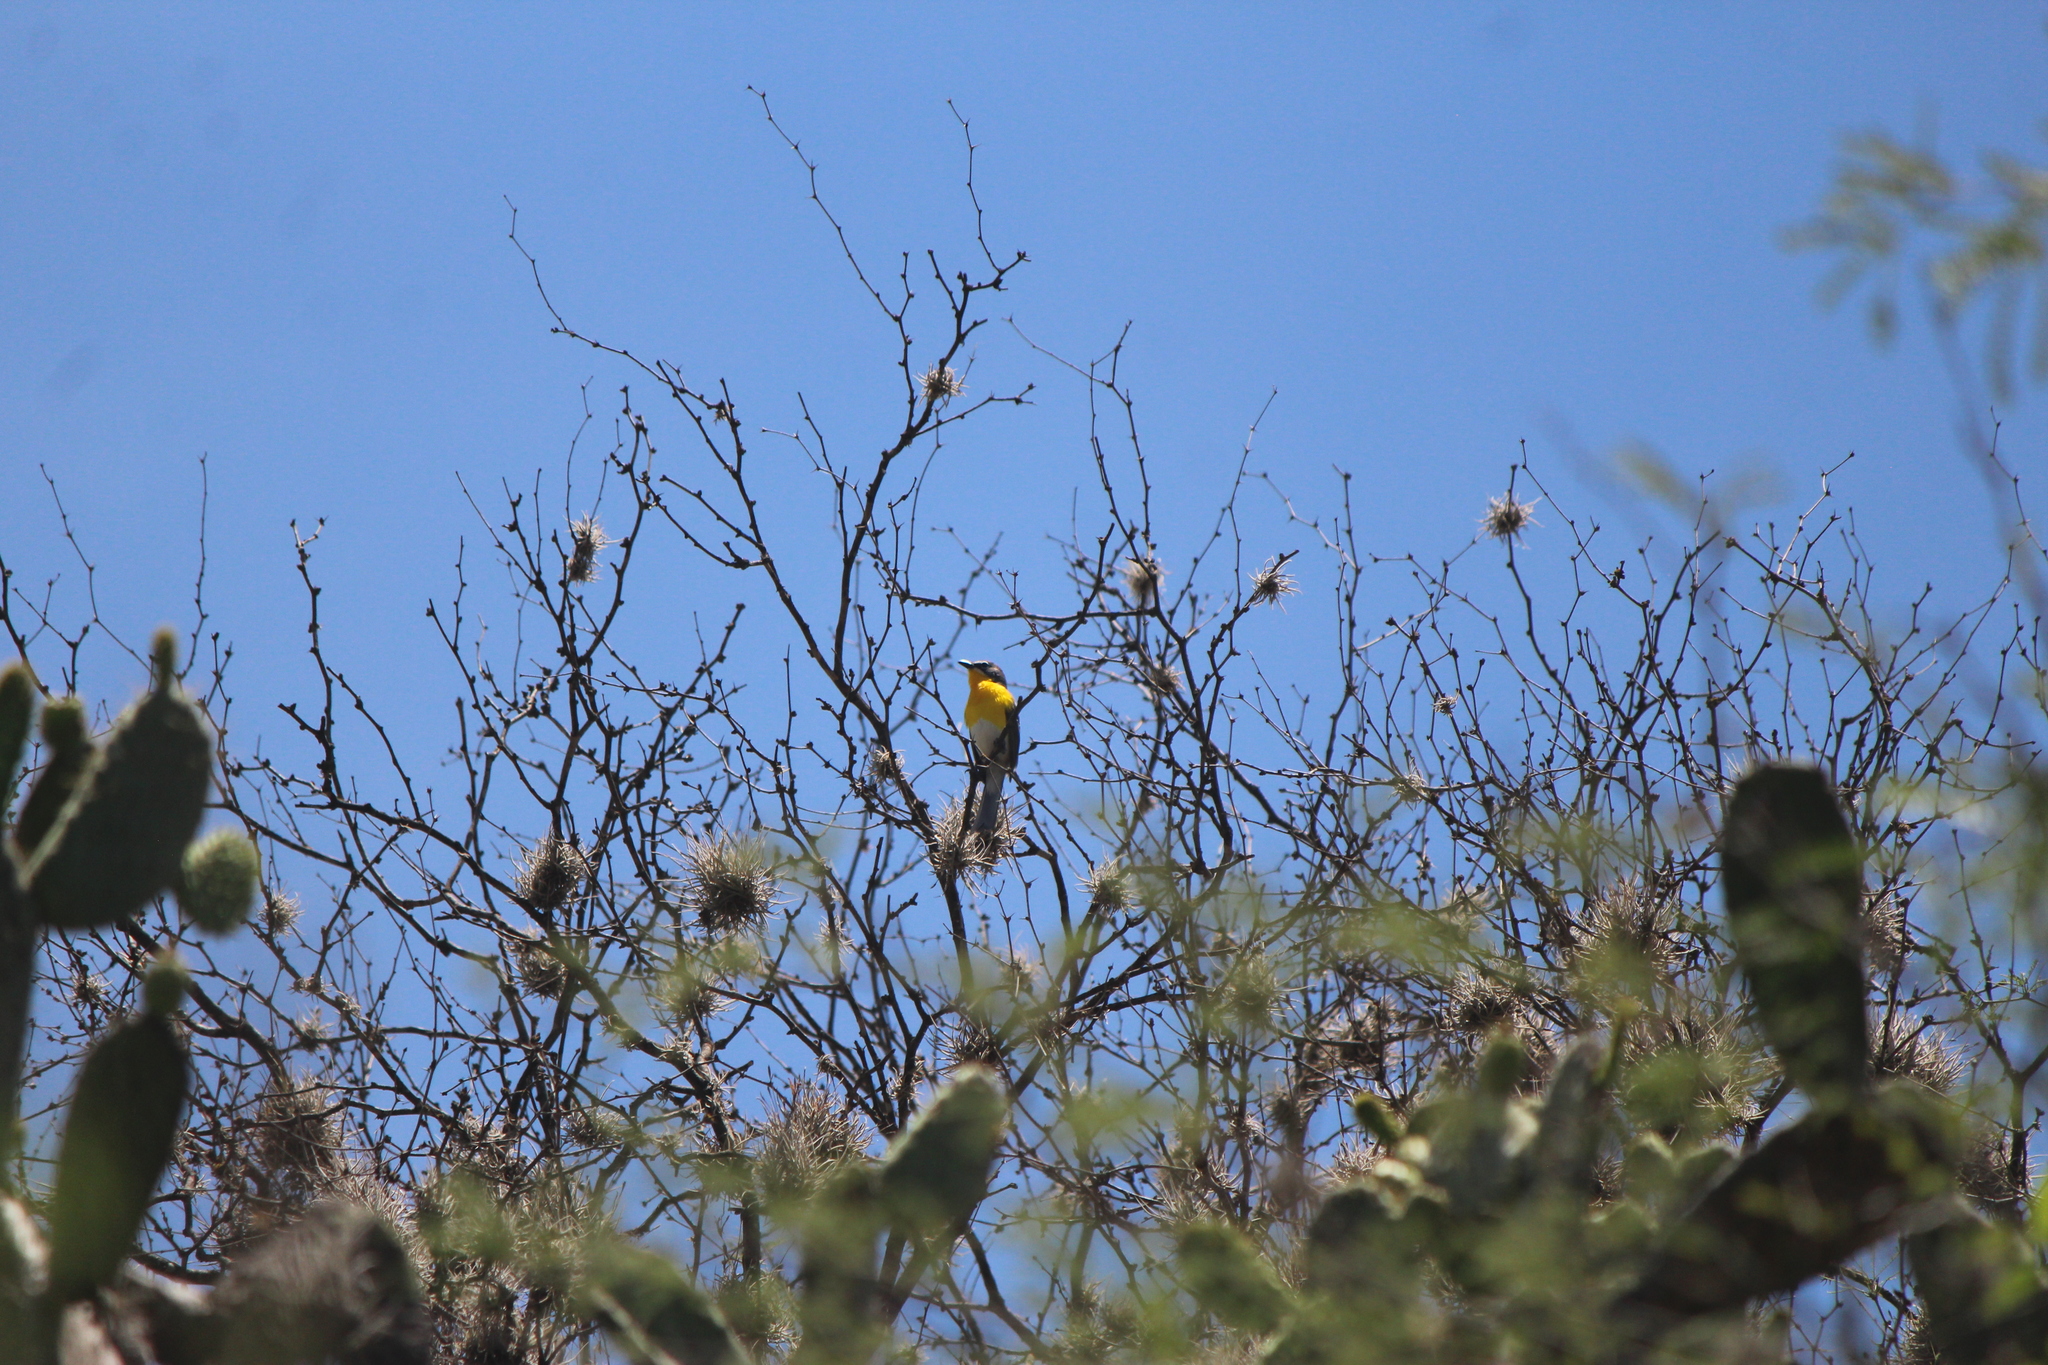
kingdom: Animalia
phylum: Chordata
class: Aves
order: Passeriformes
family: Parulidae
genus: Icteria
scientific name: Icteria virens
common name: Yellow-breasted chat
